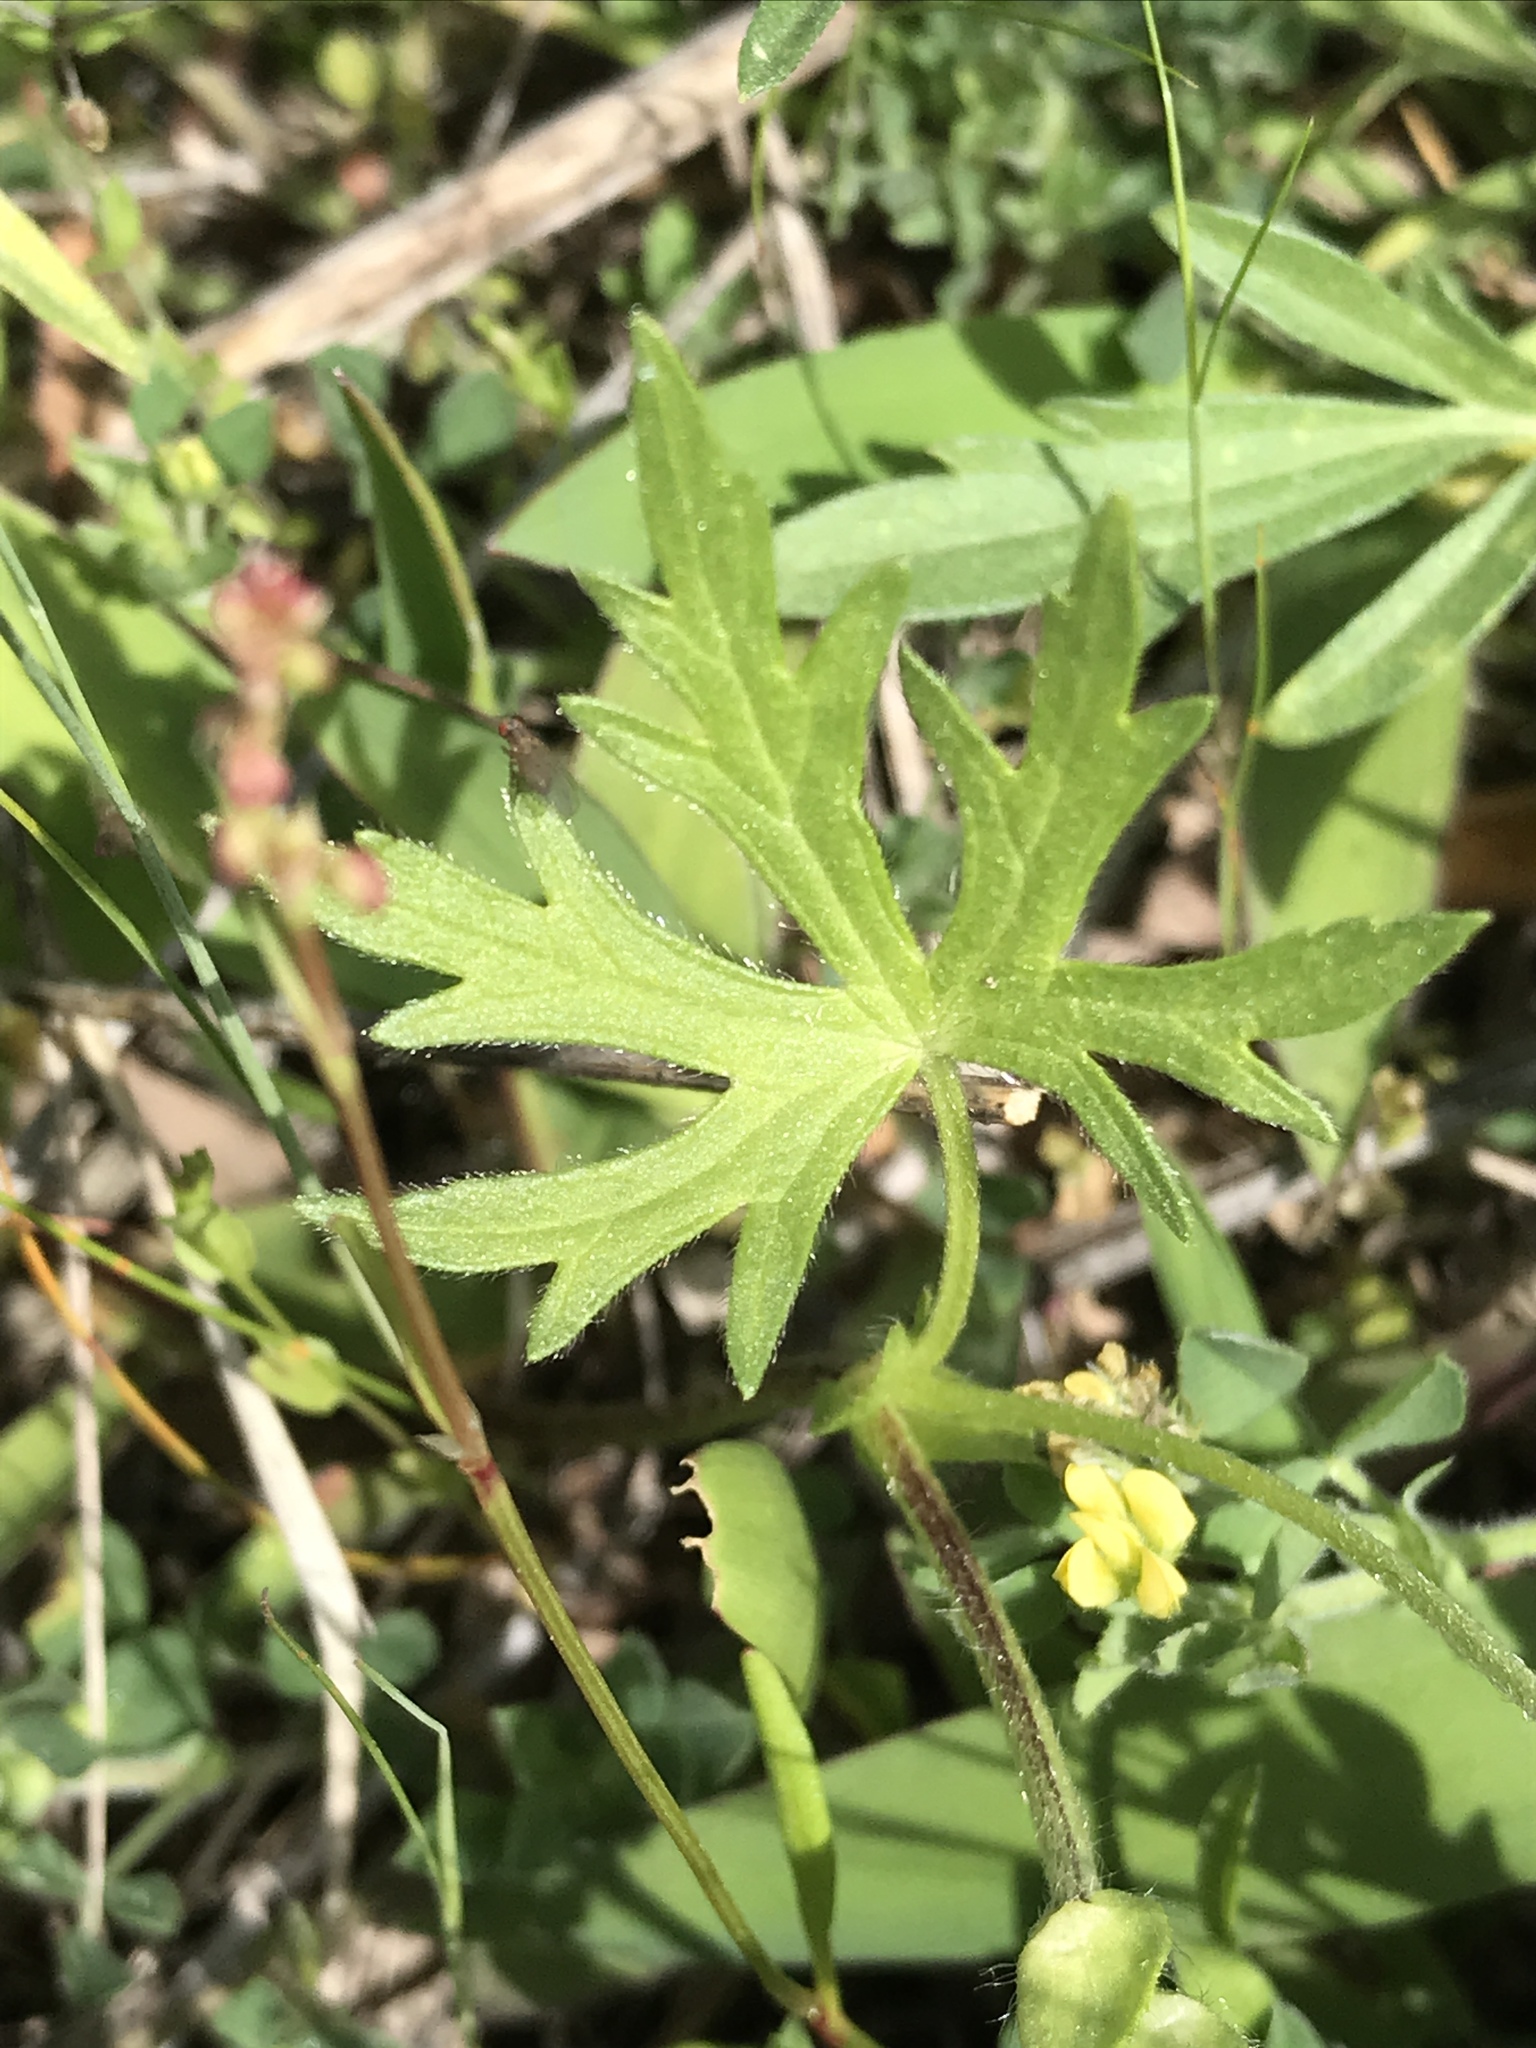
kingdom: Plantae
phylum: Tracheophyta
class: Magnoliopsida
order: Malvales
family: Malvaceae
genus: Callirhoe
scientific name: Callirhoe involucrata
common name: Purple poppy-mallow
